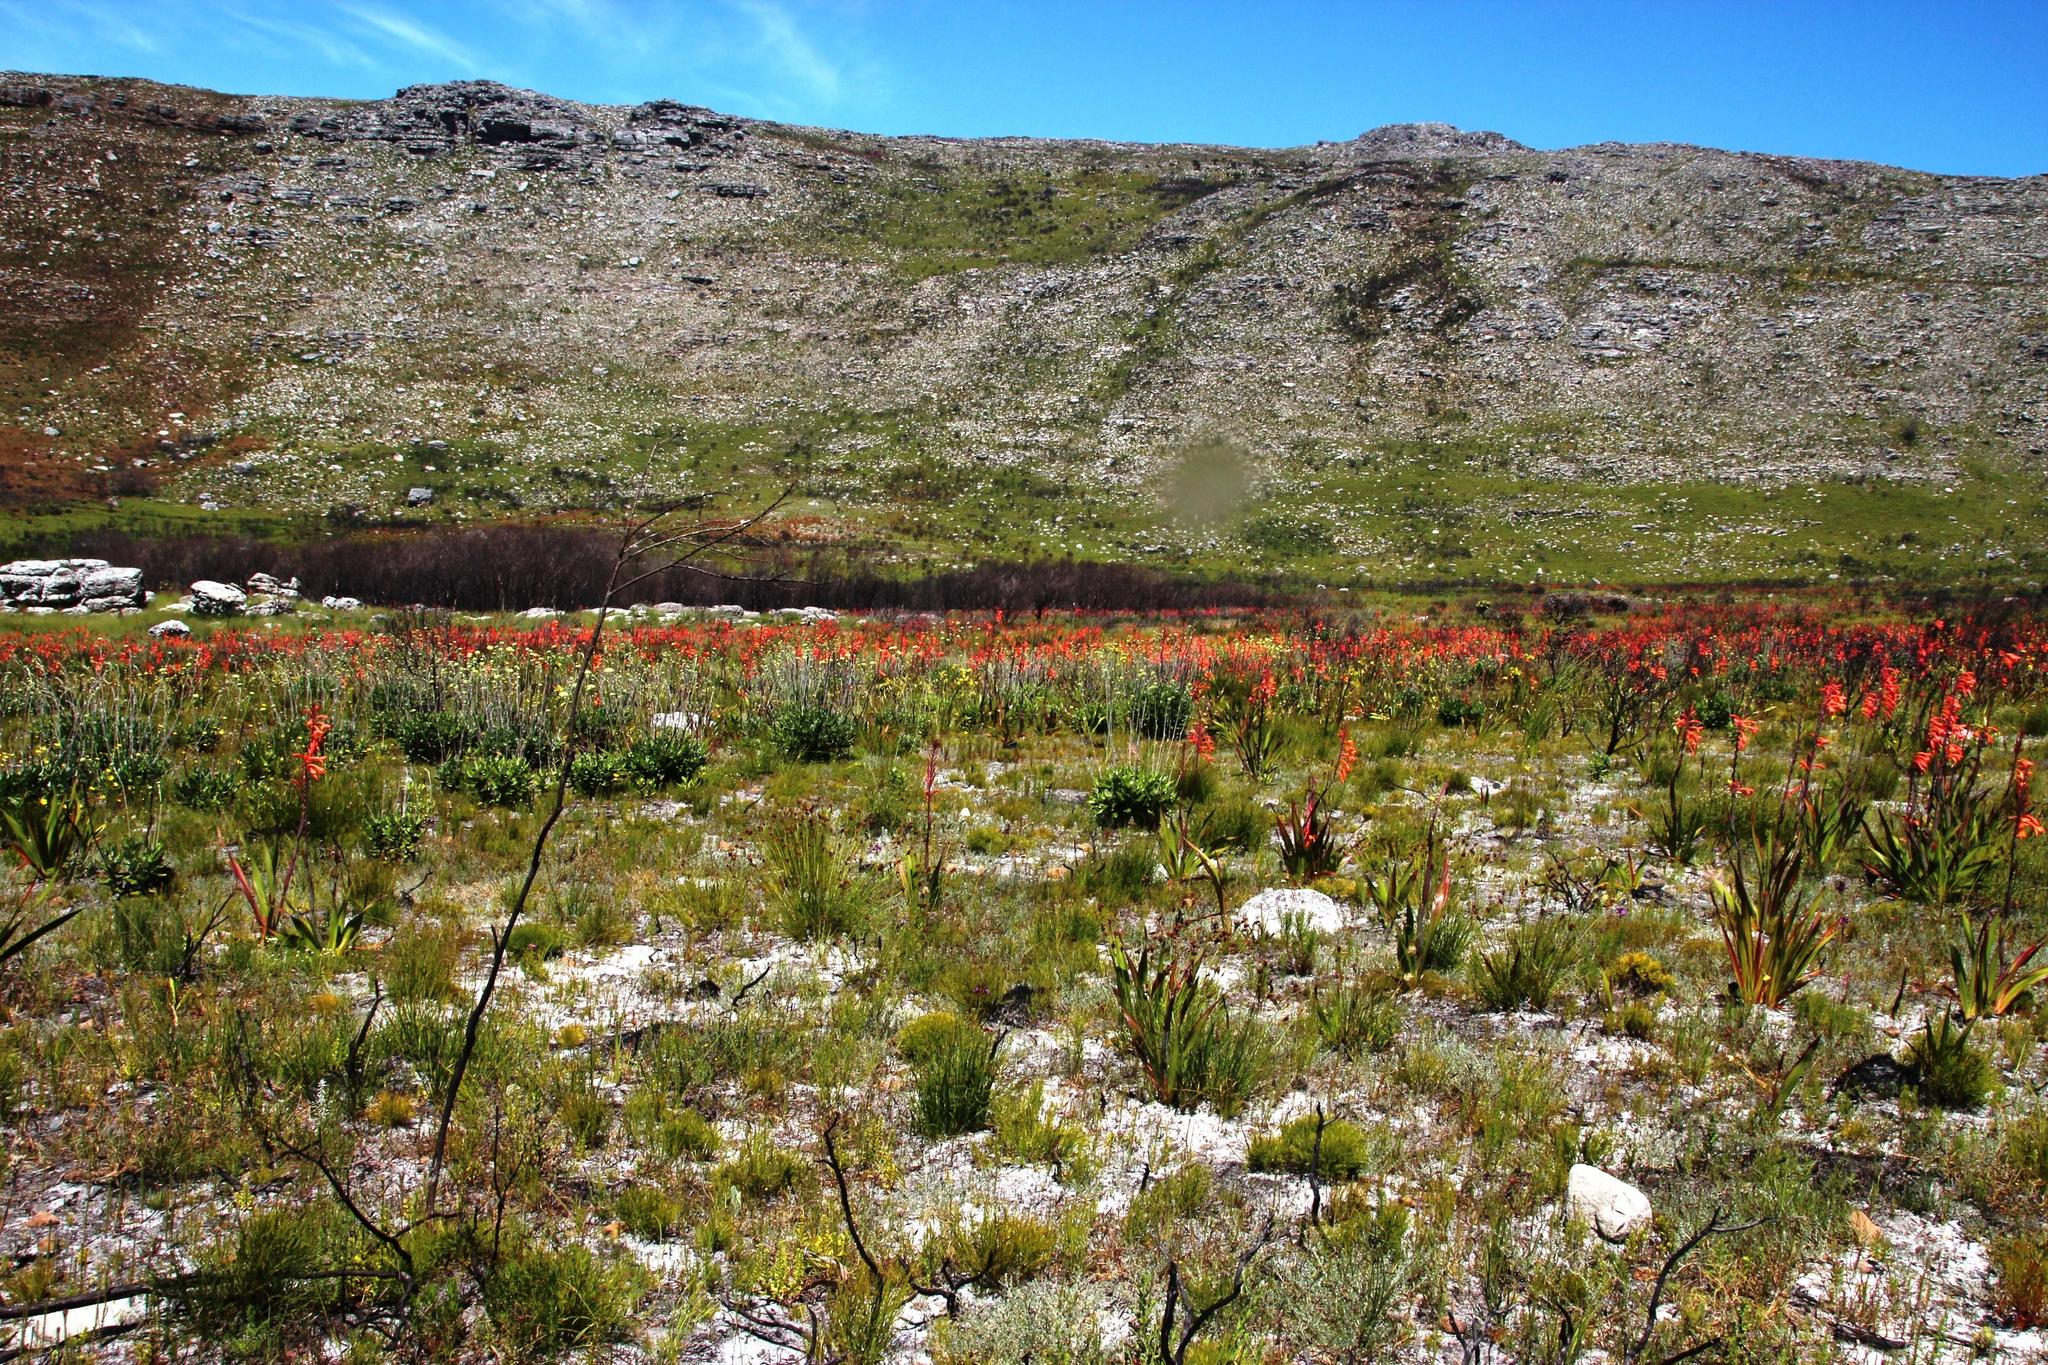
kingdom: Plantae
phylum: Tracheophyta
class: Liliopsida
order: Asparagales
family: Iridaceae
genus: Watsonia
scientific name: Watsonia tabularis
